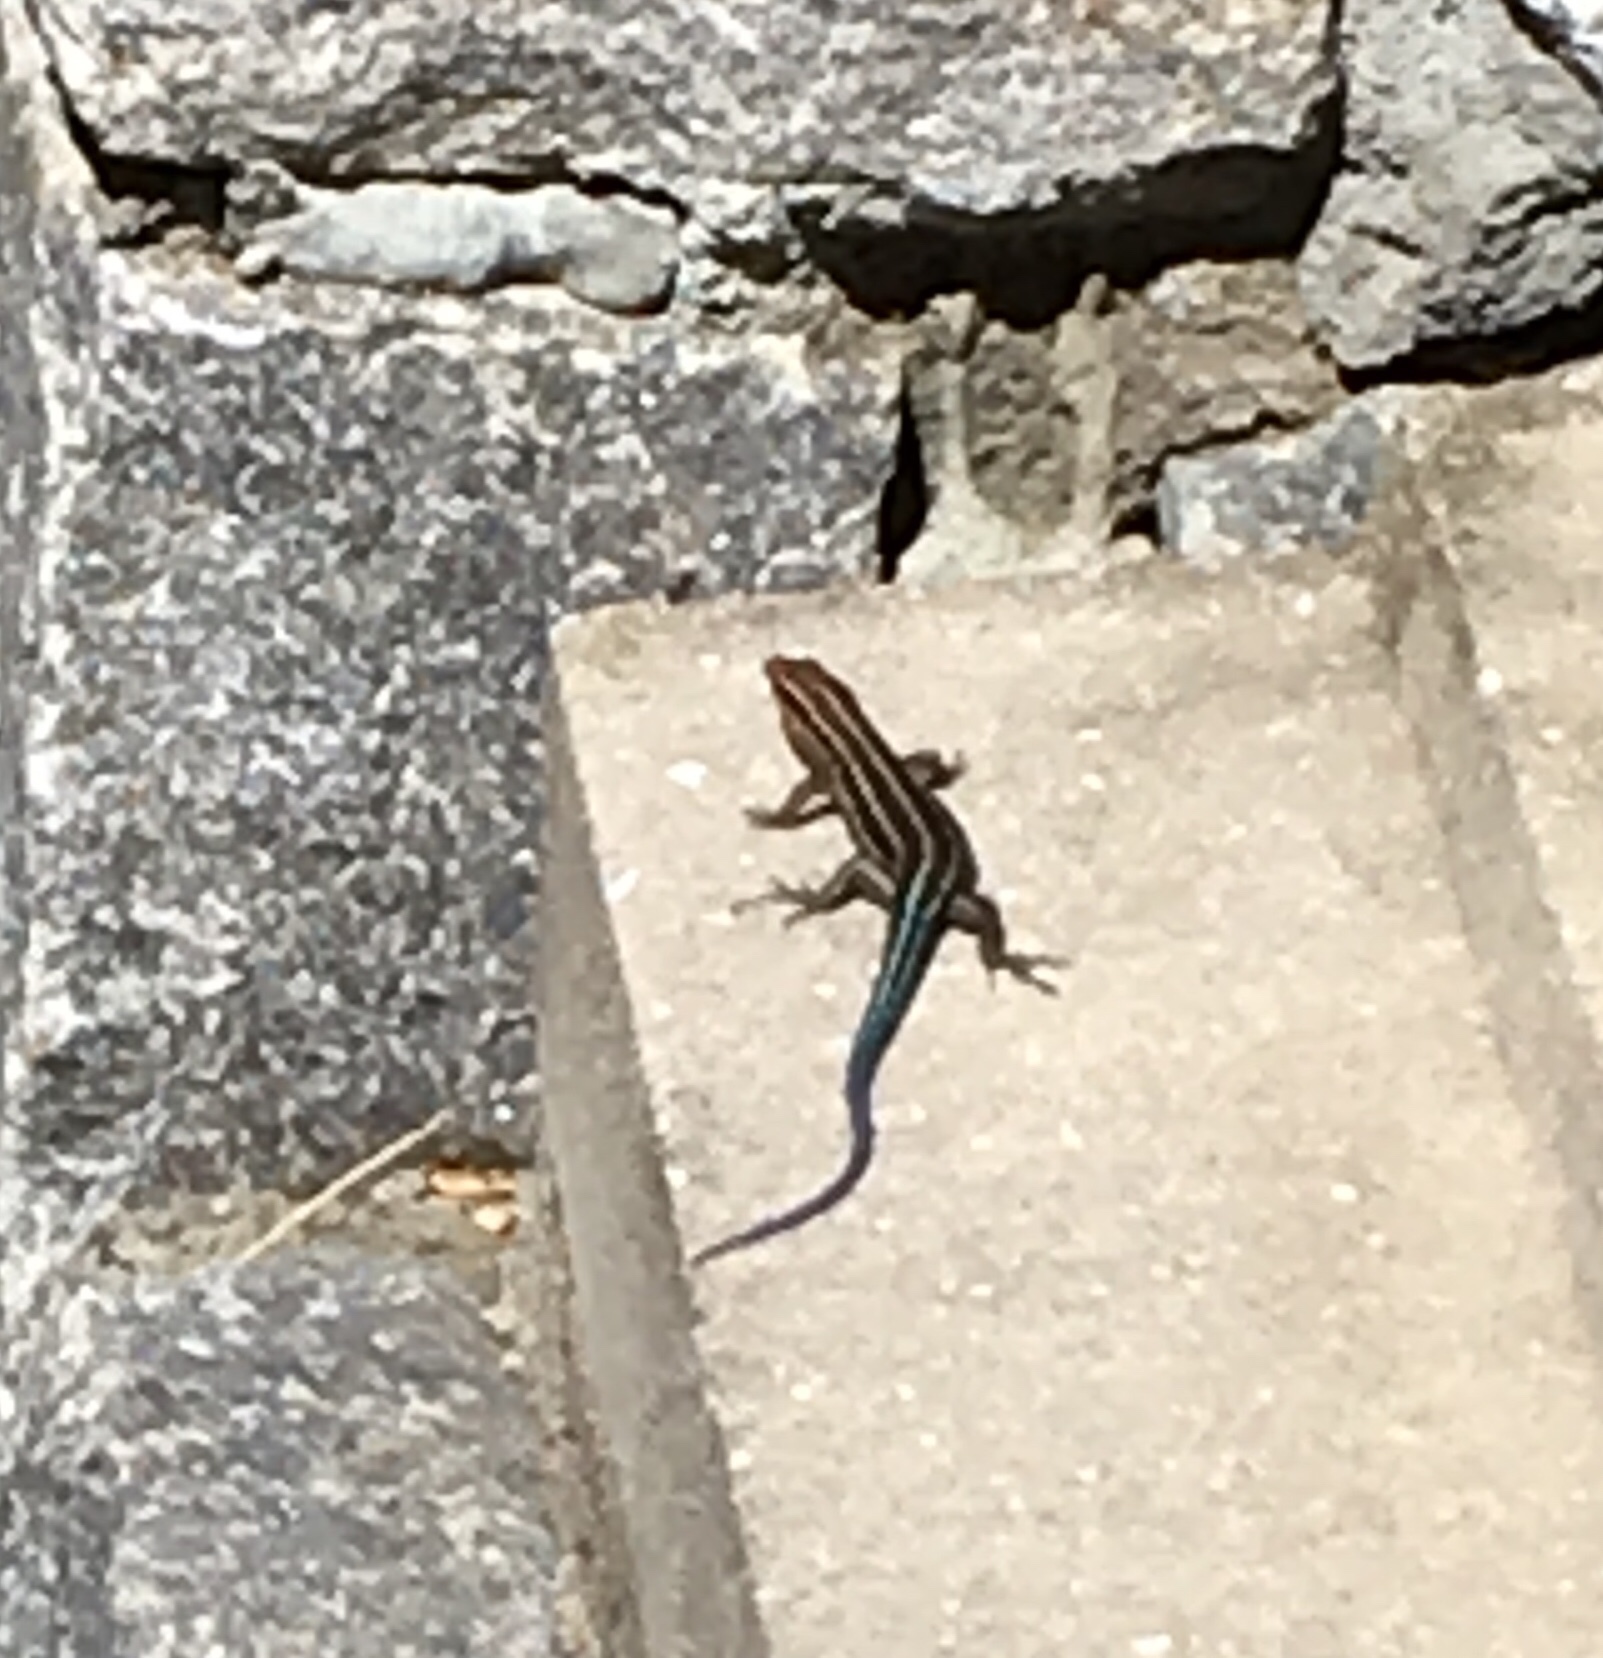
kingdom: Animalia
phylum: Chordata
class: Squamata
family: Scincidae
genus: Plestiodon
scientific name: Plestiodon fasciatus
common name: Five-lined skink
